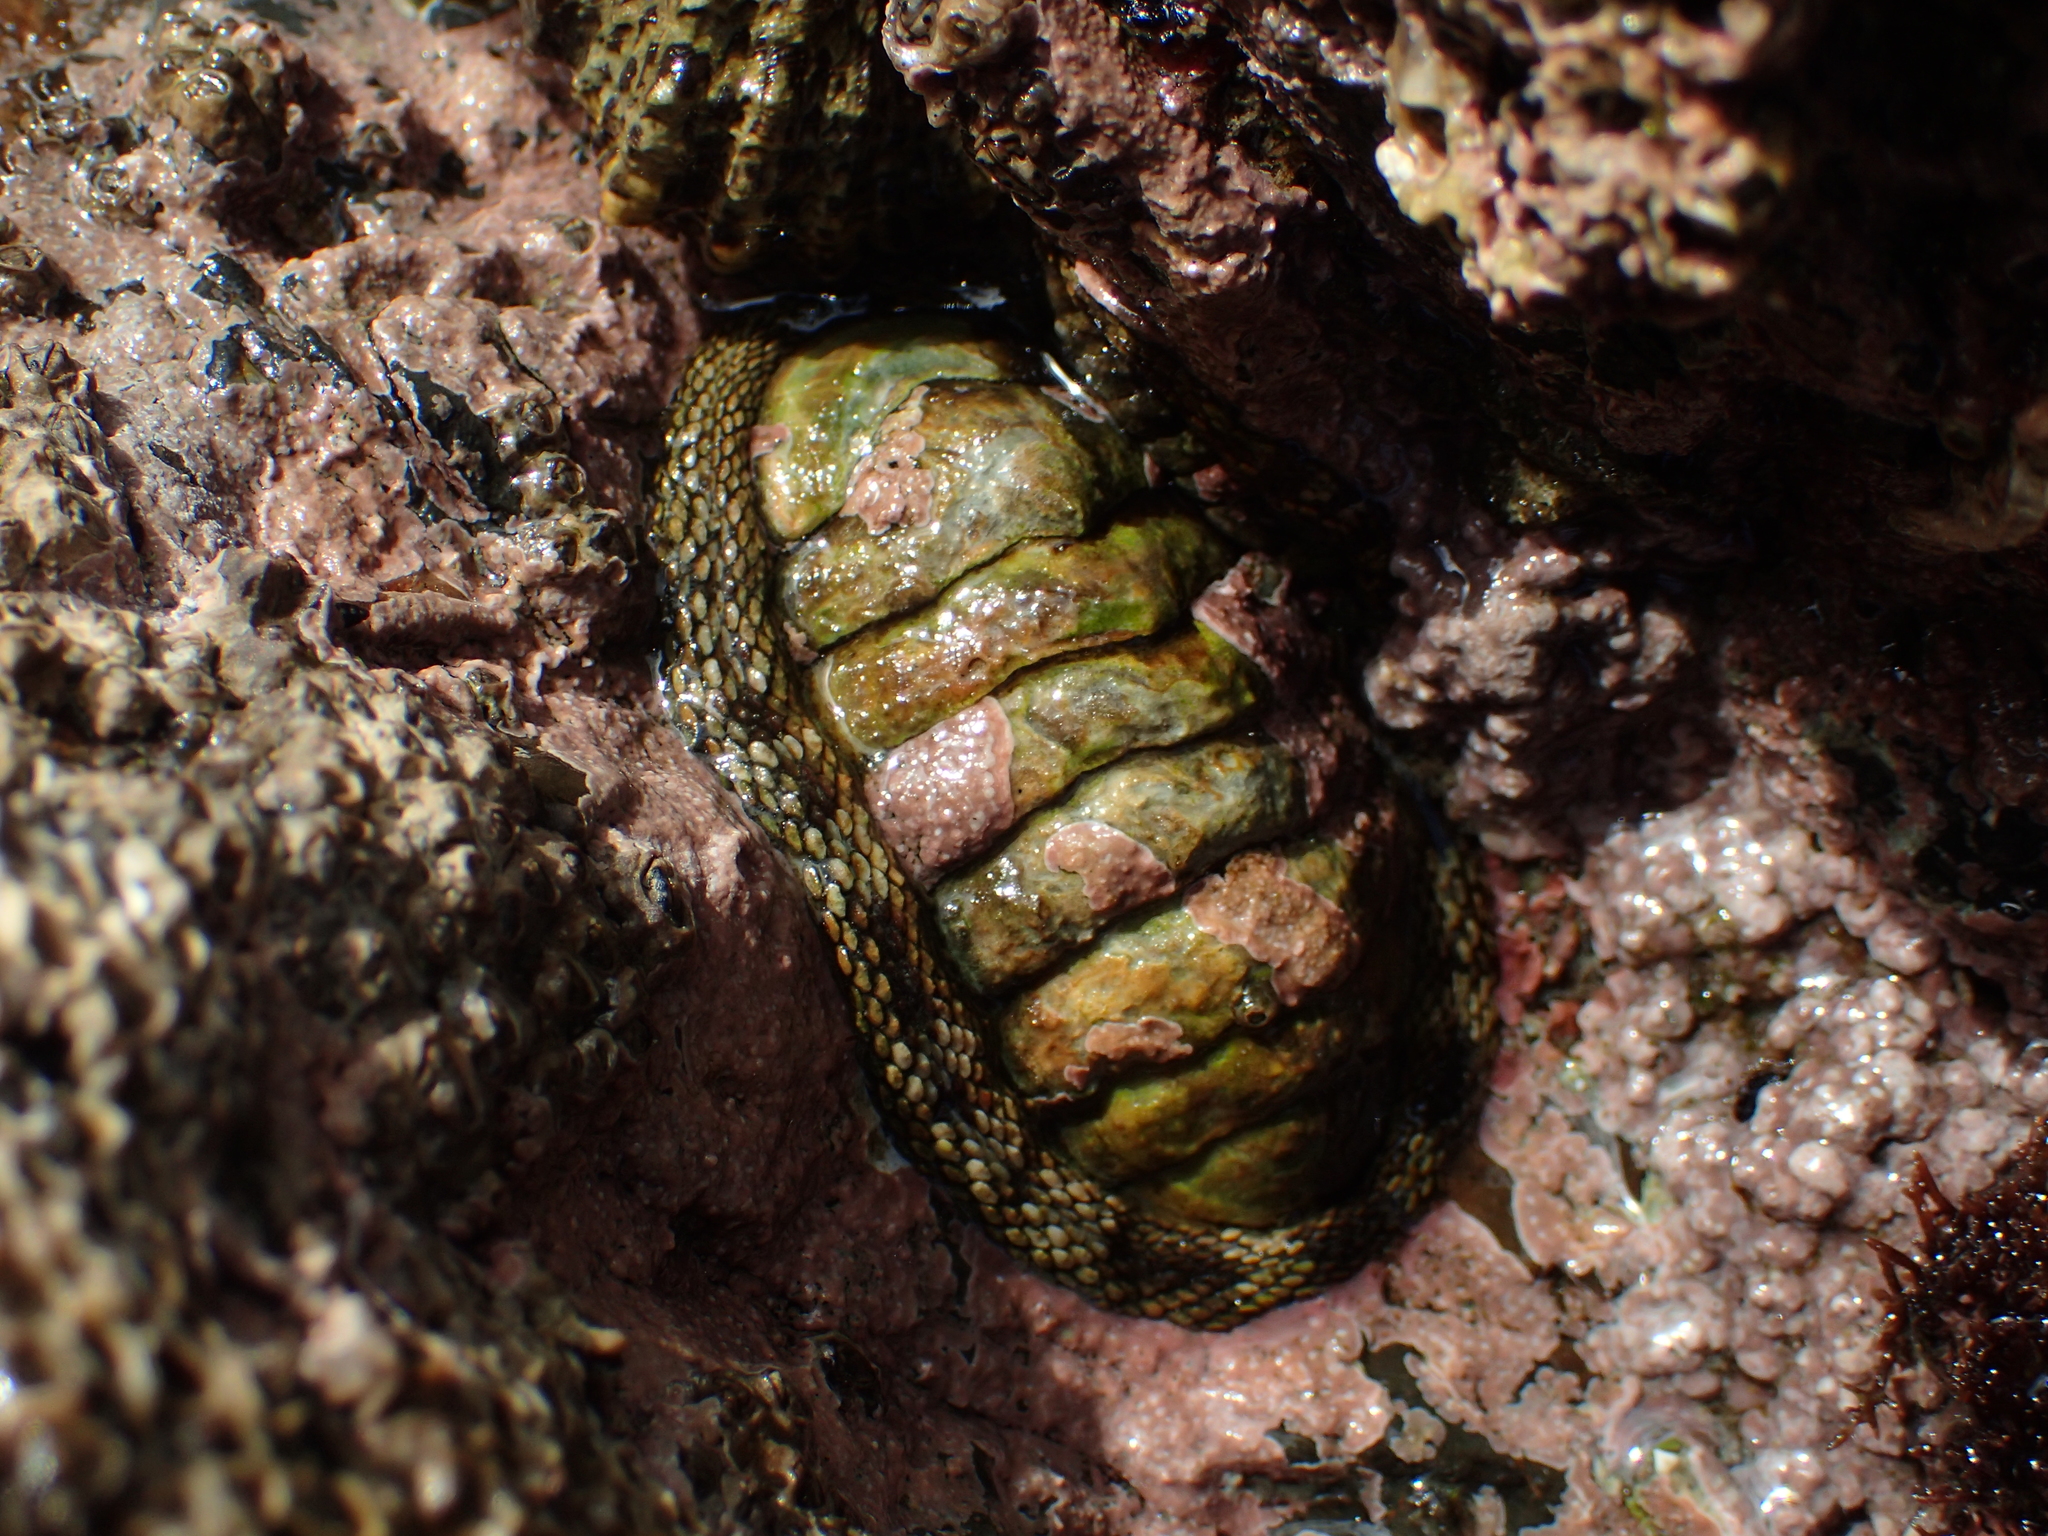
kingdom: Animalia
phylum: Mollusca
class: Polyplacophora
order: Chitonida
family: Chitonidae
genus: Sypharochiton
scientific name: Sypharochiton pelliserpentis
